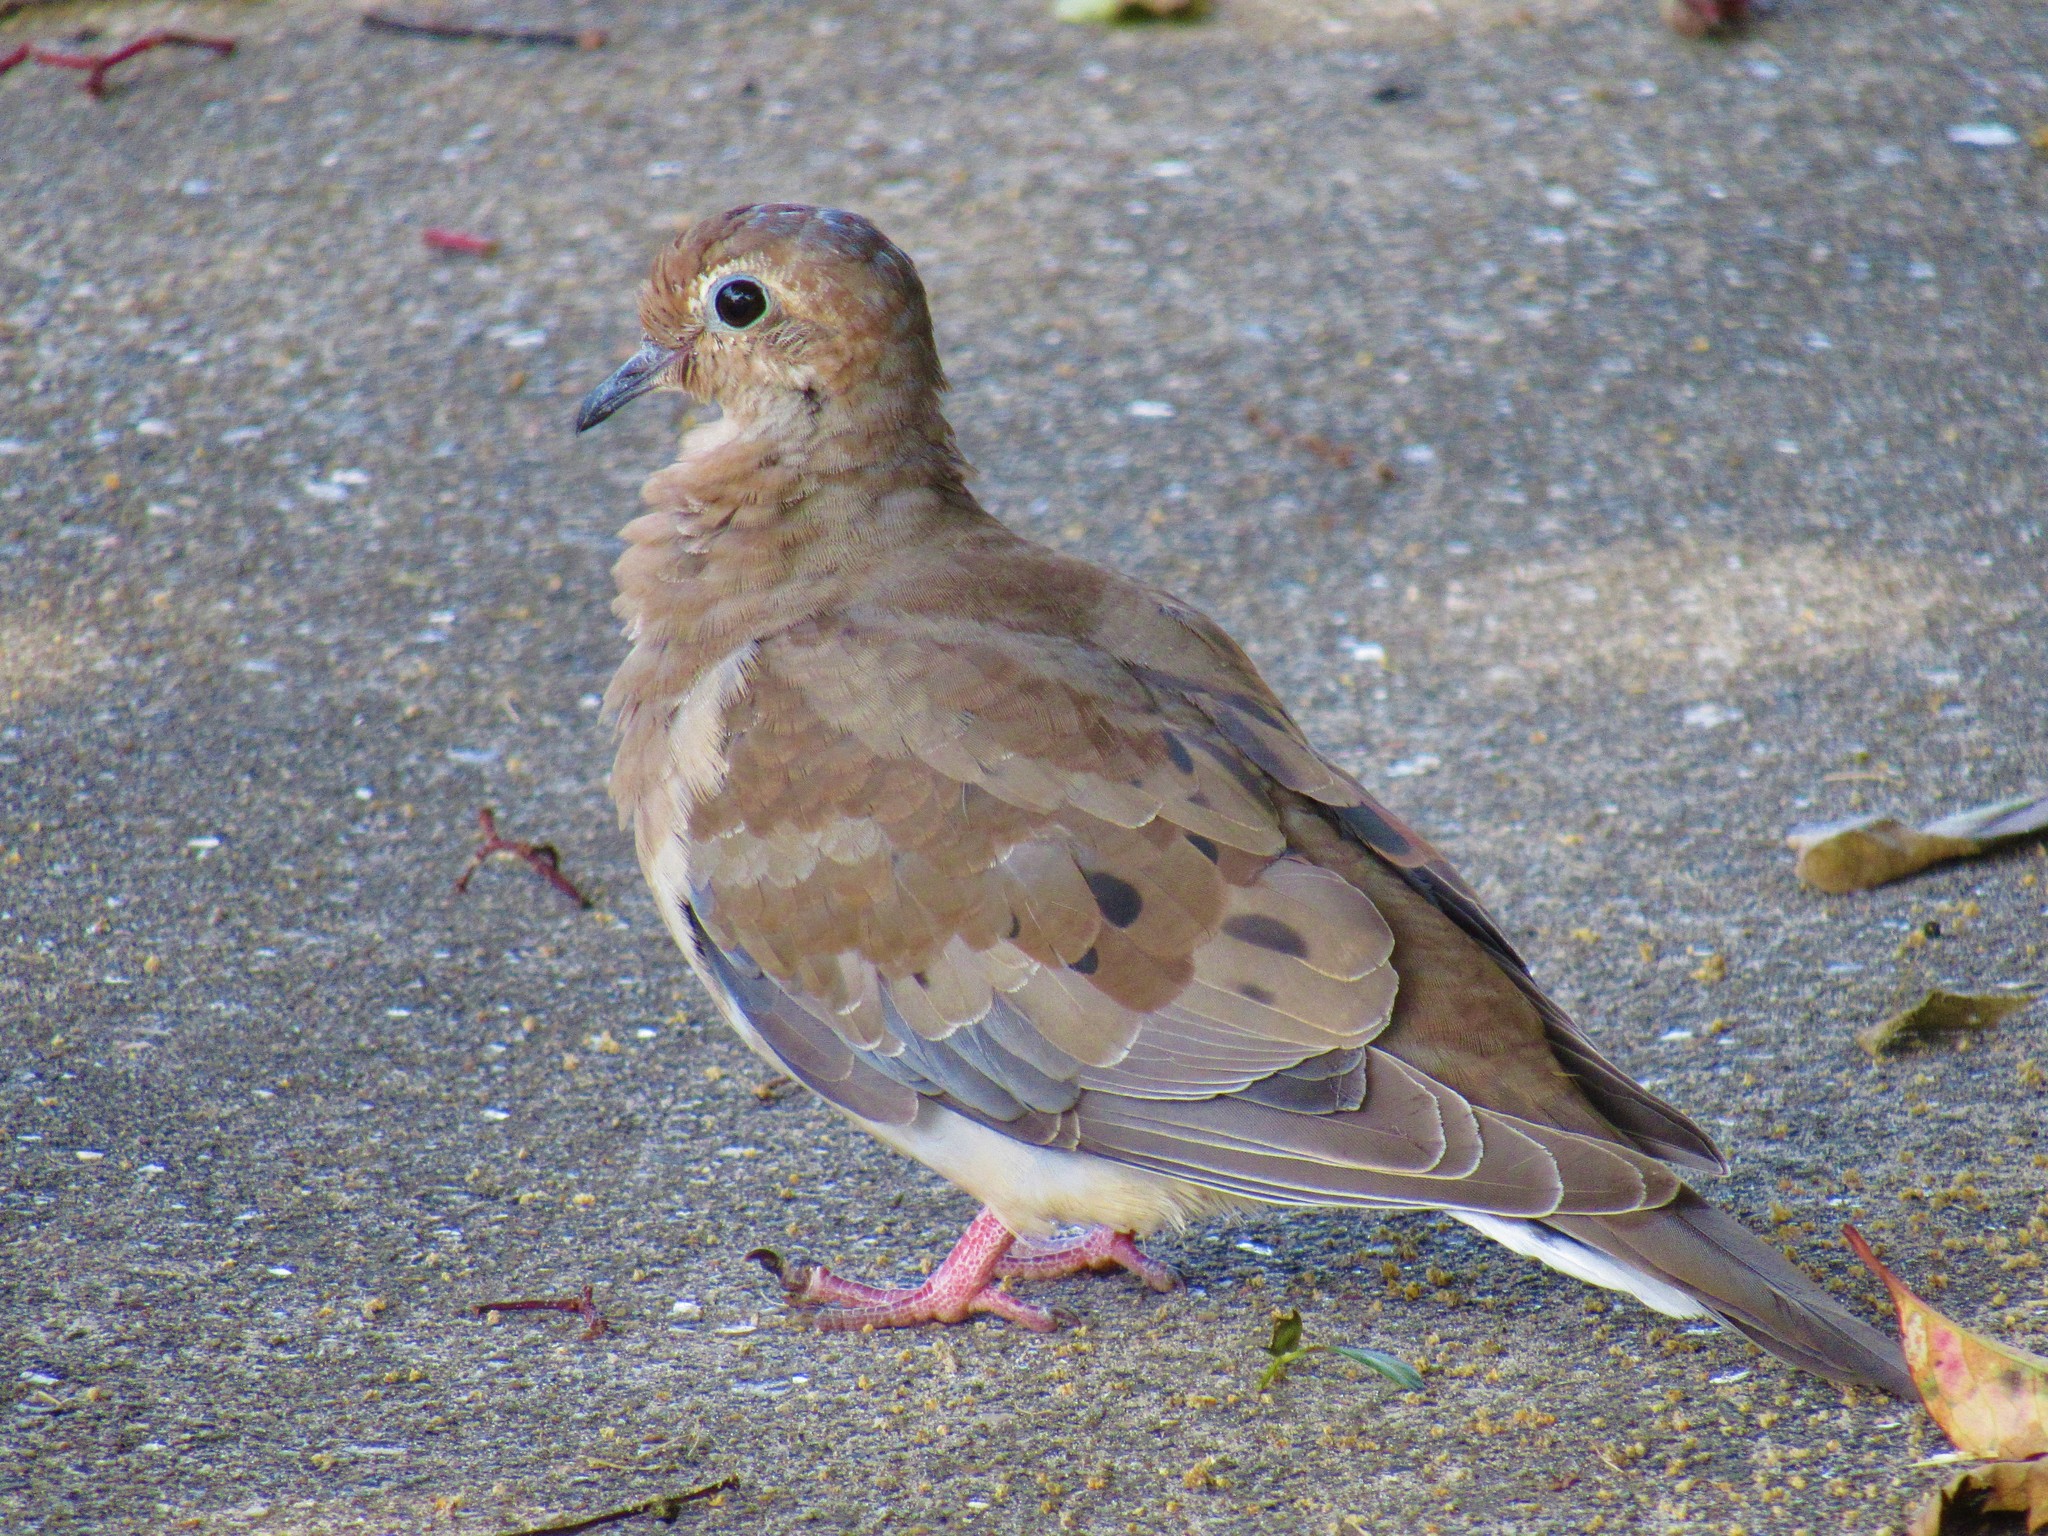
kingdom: Animalia
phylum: Chordata
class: Aves
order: Columbiformes
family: Columbidae
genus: Zenaida
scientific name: Zenaida macroura
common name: Mourning dove
